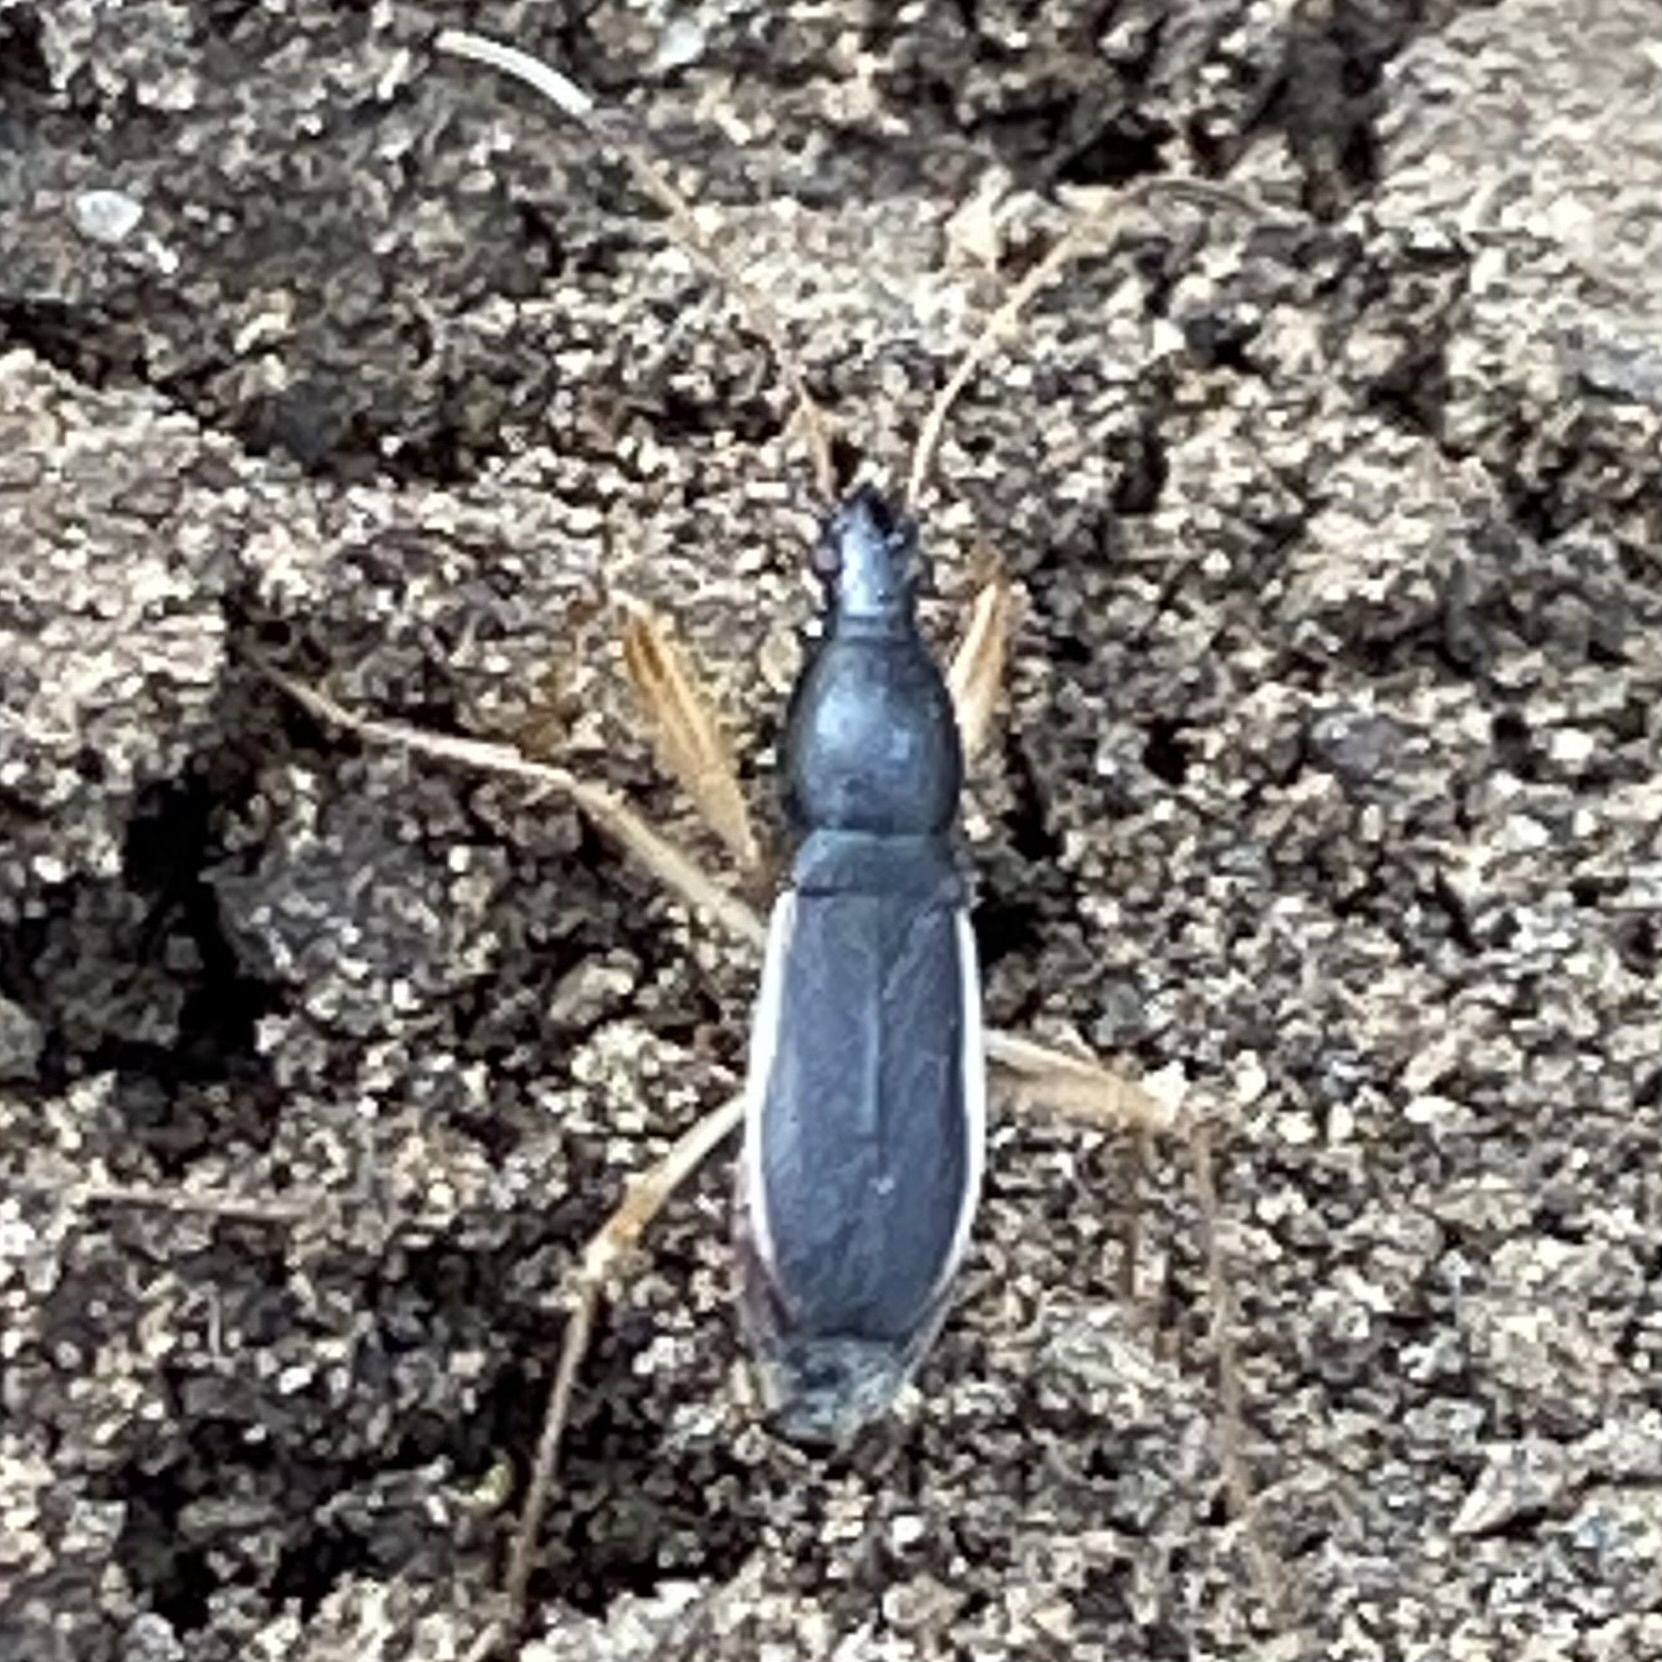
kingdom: Animalia
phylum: Arthropoda
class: Insecta
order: Hemiptera
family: Rhyparochromidae
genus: Cnemodus
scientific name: Cnemodus mavortius
